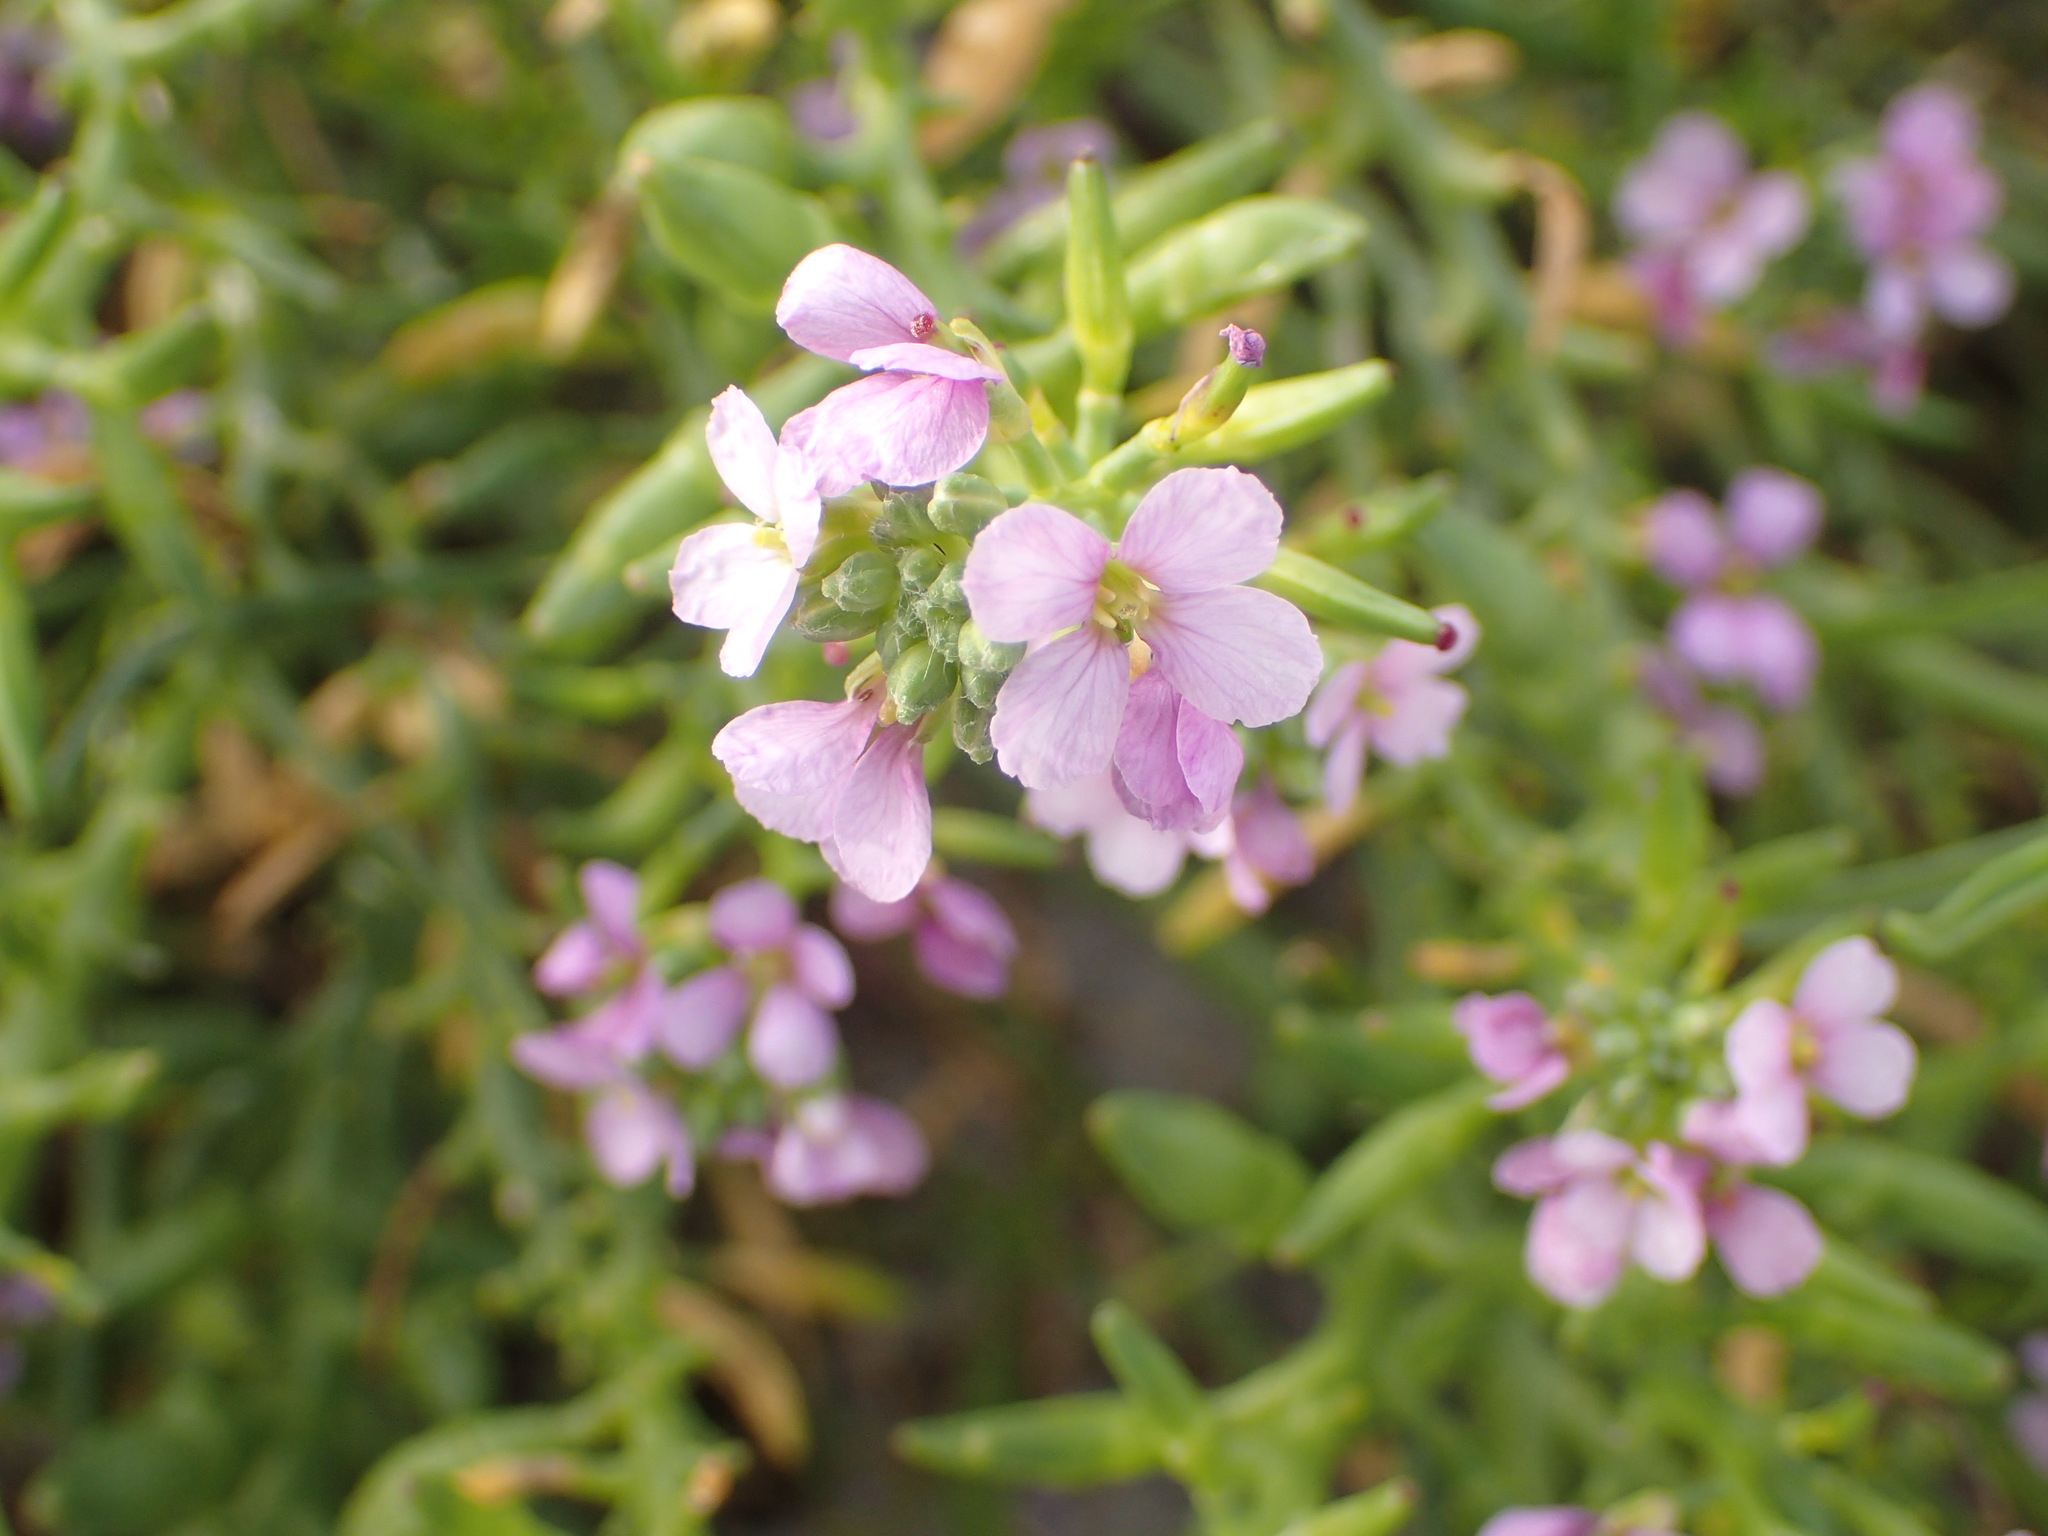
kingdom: Plantae
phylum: Tracheophyta
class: Magnoliopsida
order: Brassicales
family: Brassicaceae
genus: Cakile
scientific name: Cakile maritima
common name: Sea rocket
